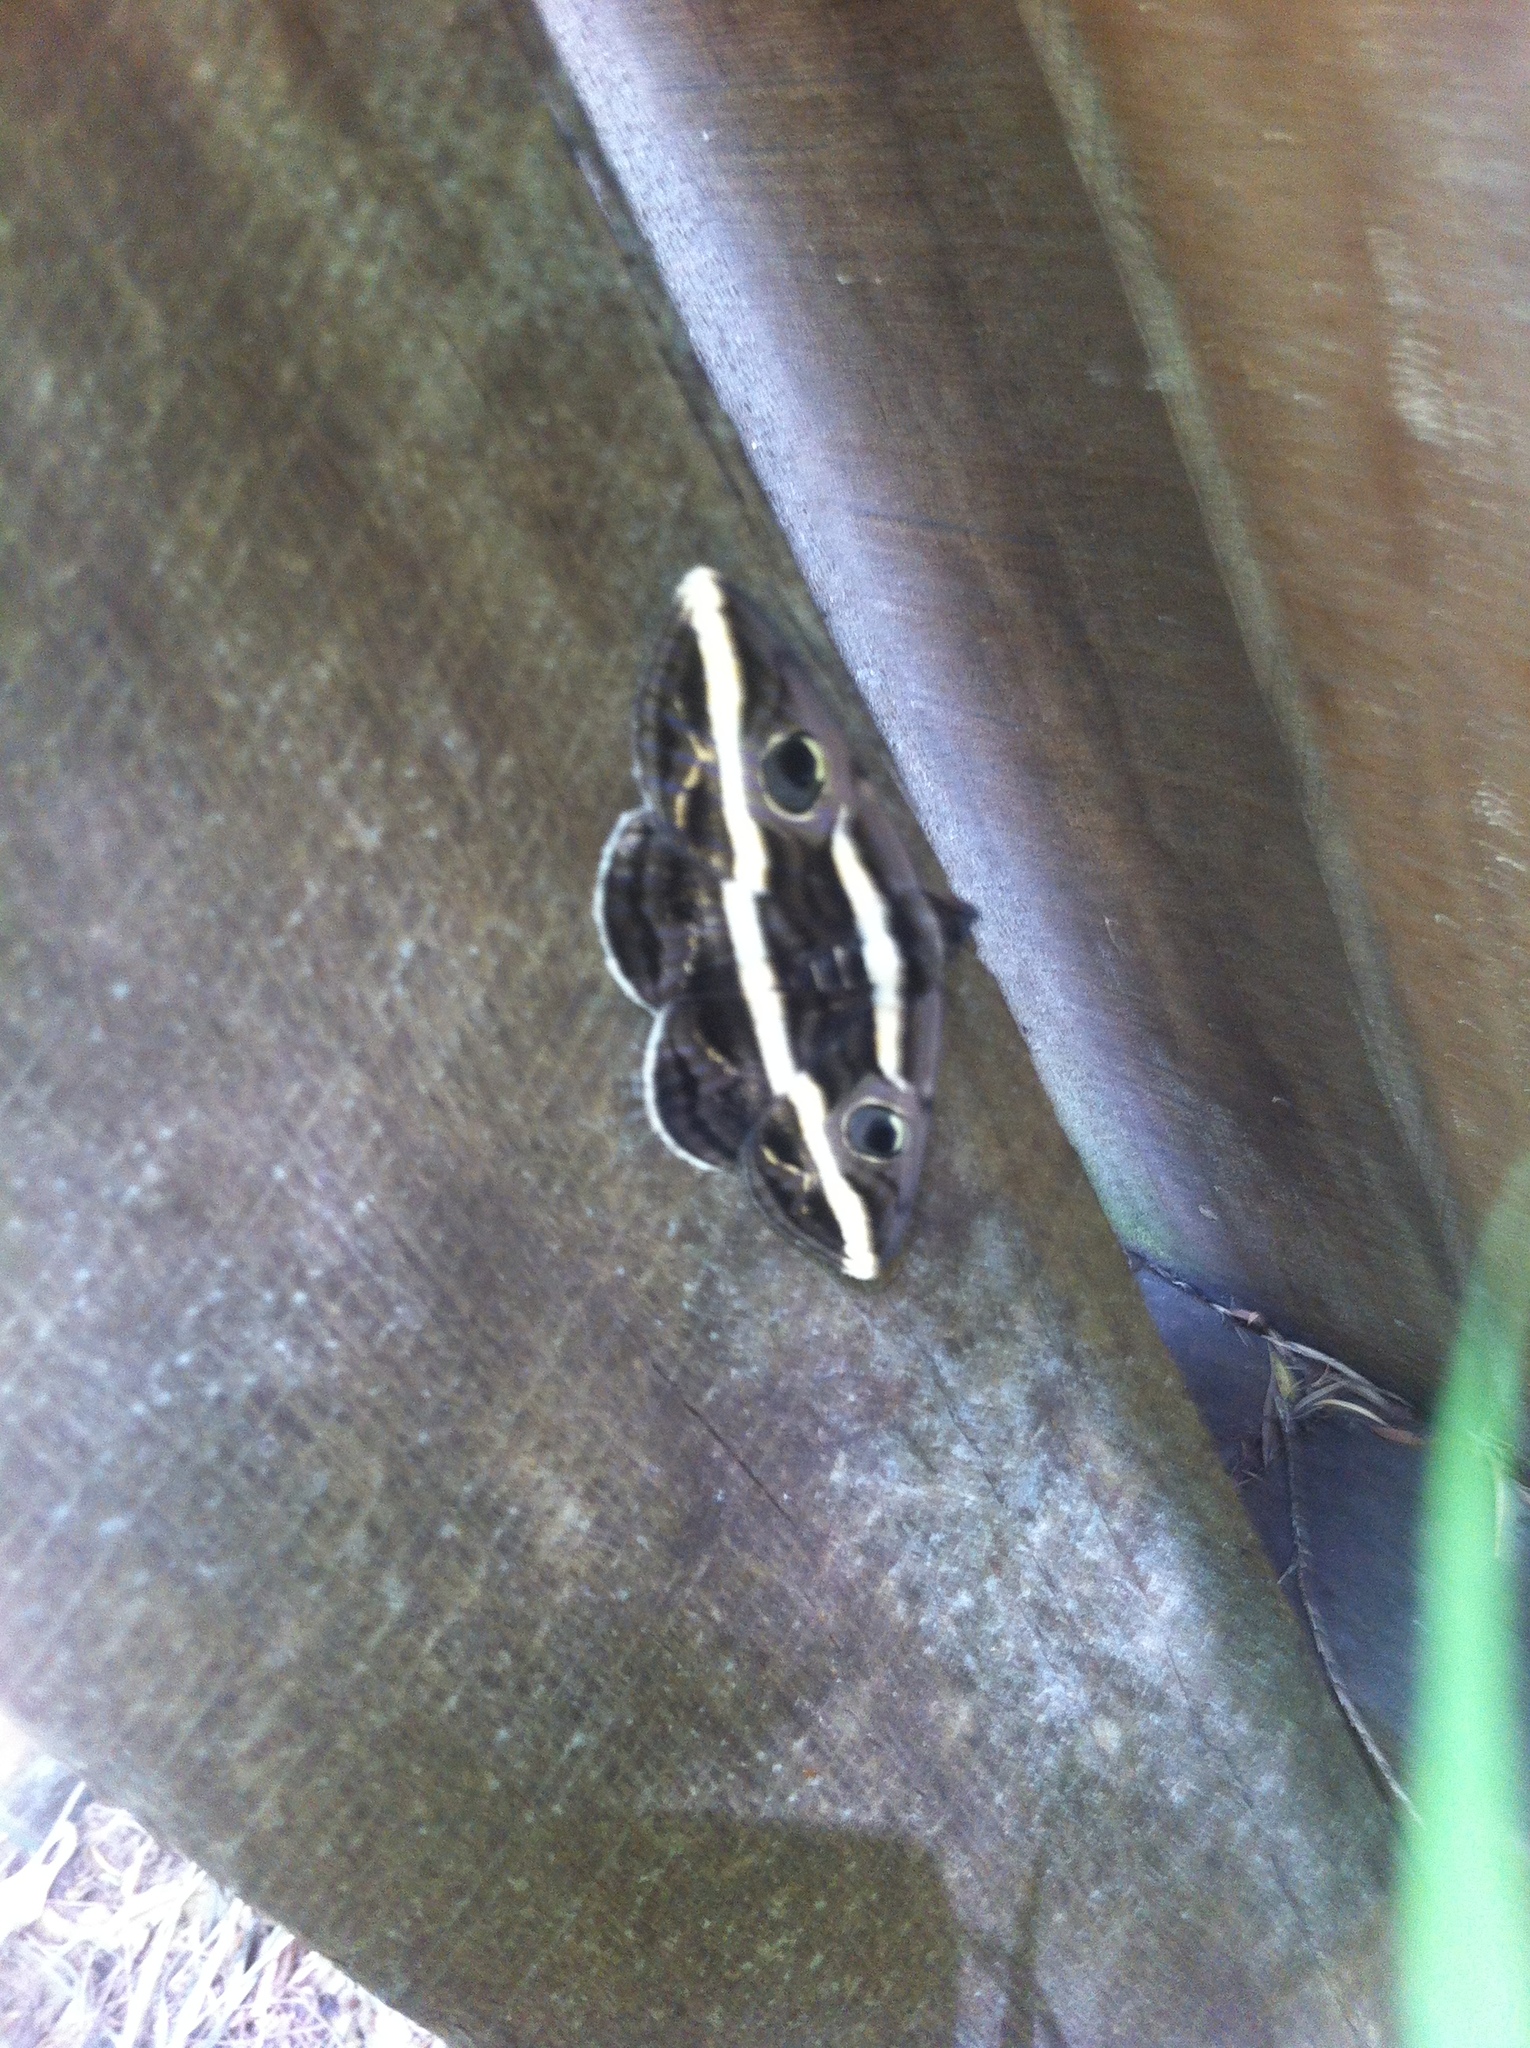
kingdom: Animalia
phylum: Arthropoda
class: Insecta
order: Lepidoptera
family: Erebidae
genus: Donuca
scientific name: Donuca rubropicta
